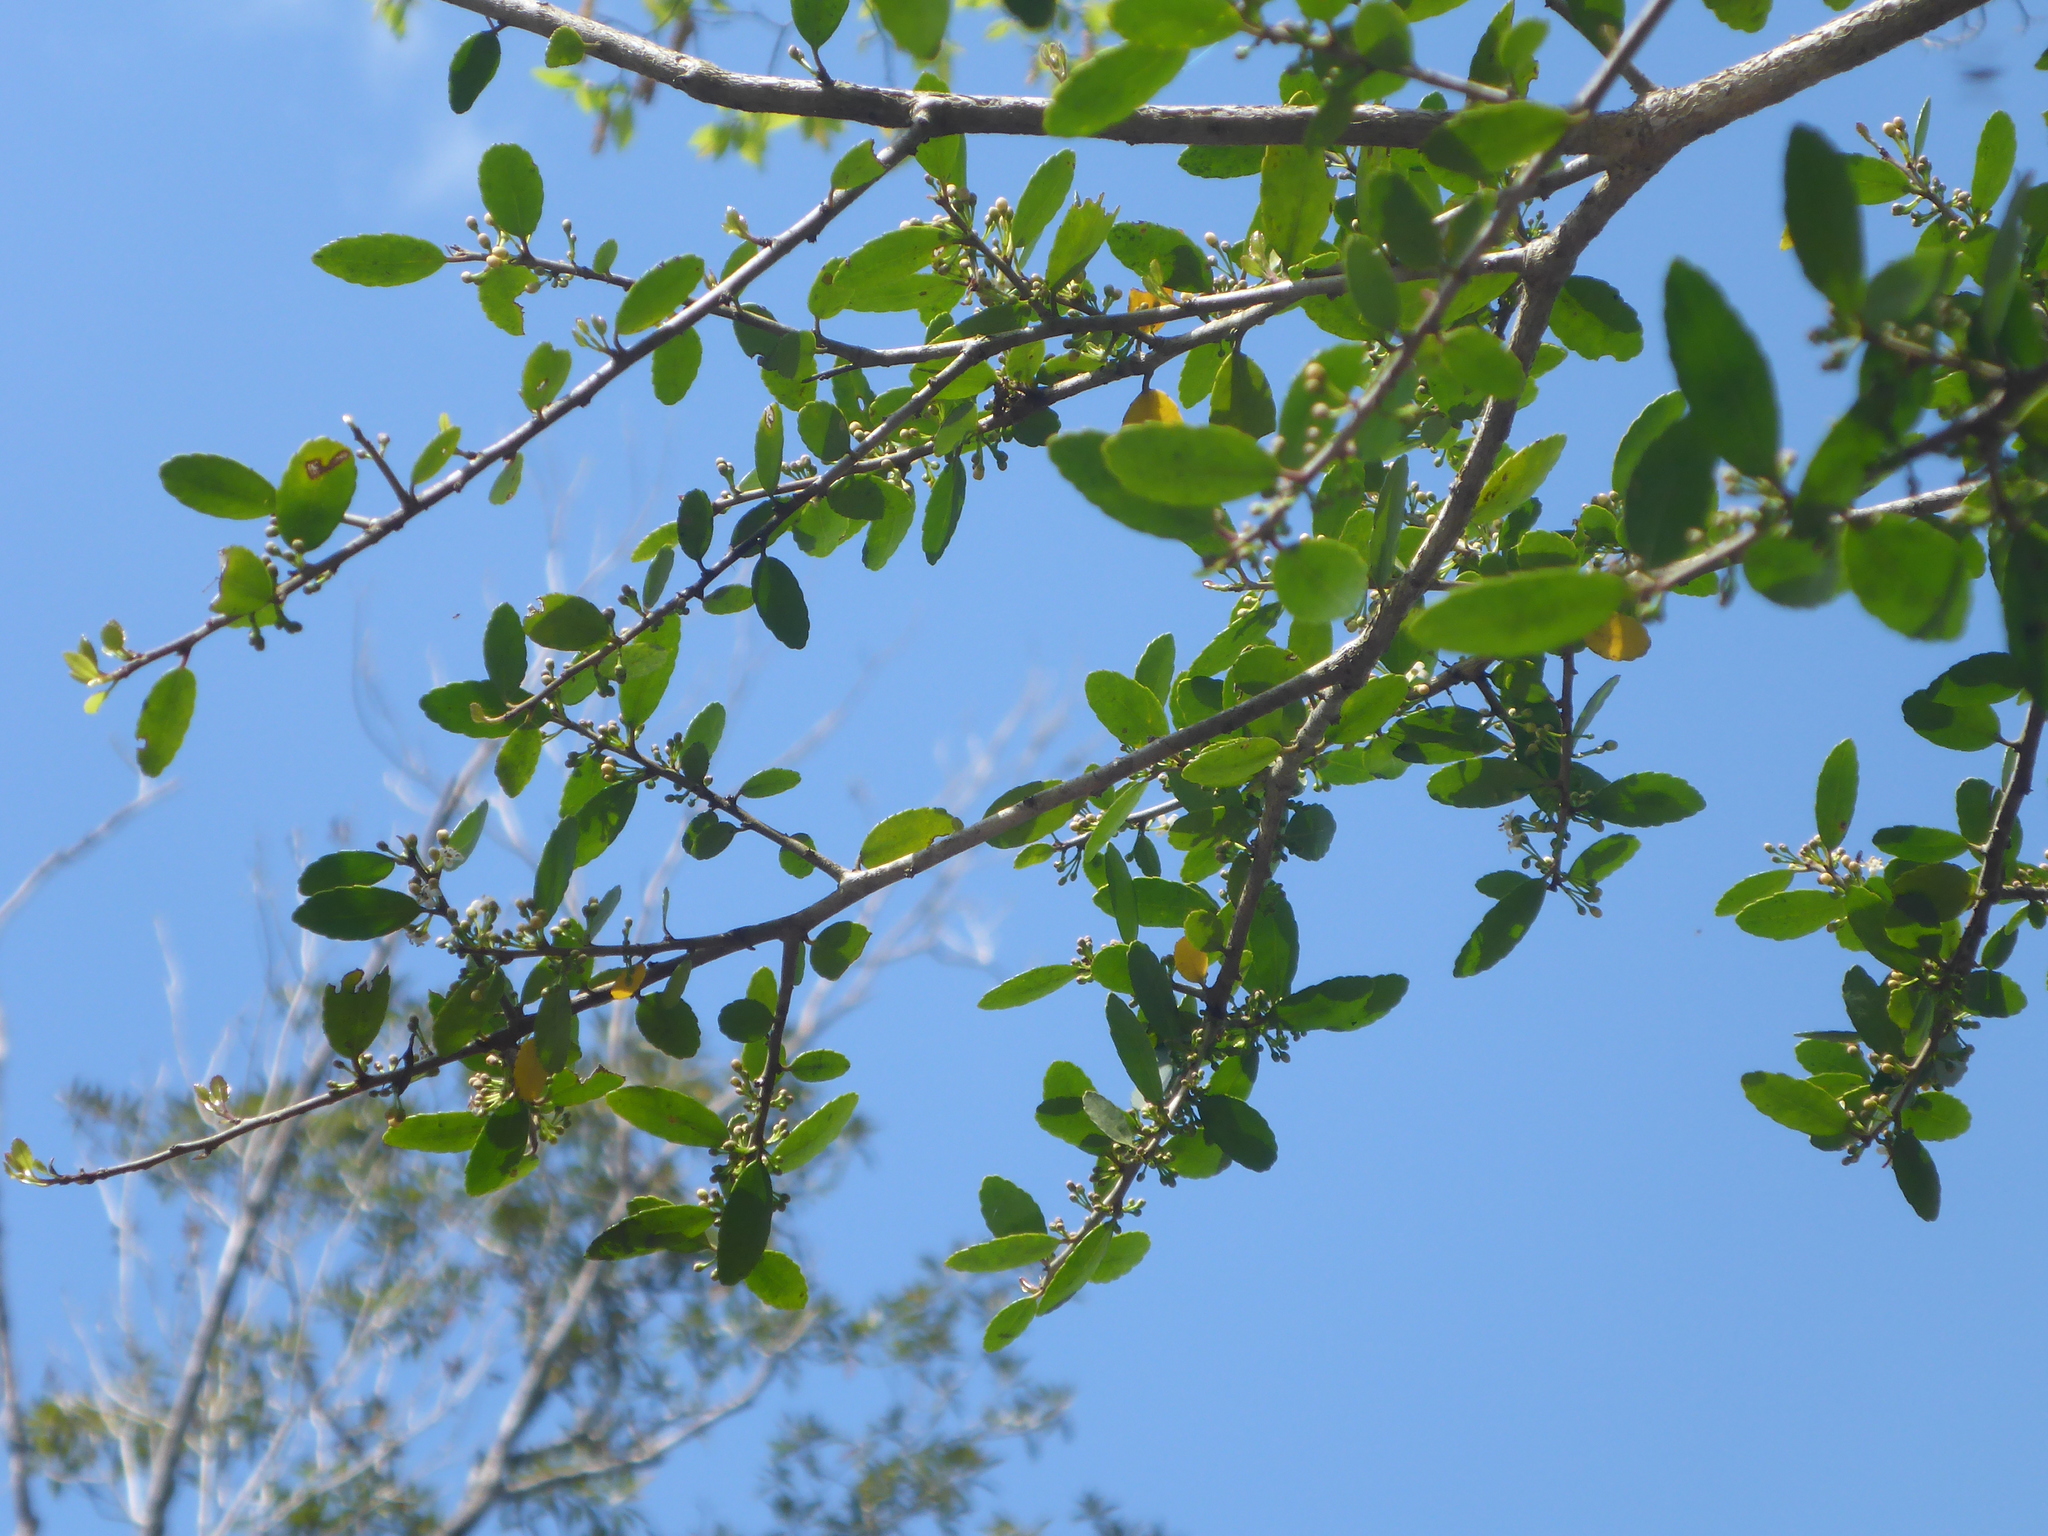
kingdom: Plantae
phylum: Tracheophyta
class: Magnoliopsida
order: Aquifoliales
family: Aquifoliaceae
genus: Ilex
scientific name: Ilex vomitoria
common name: Yaupon holly
